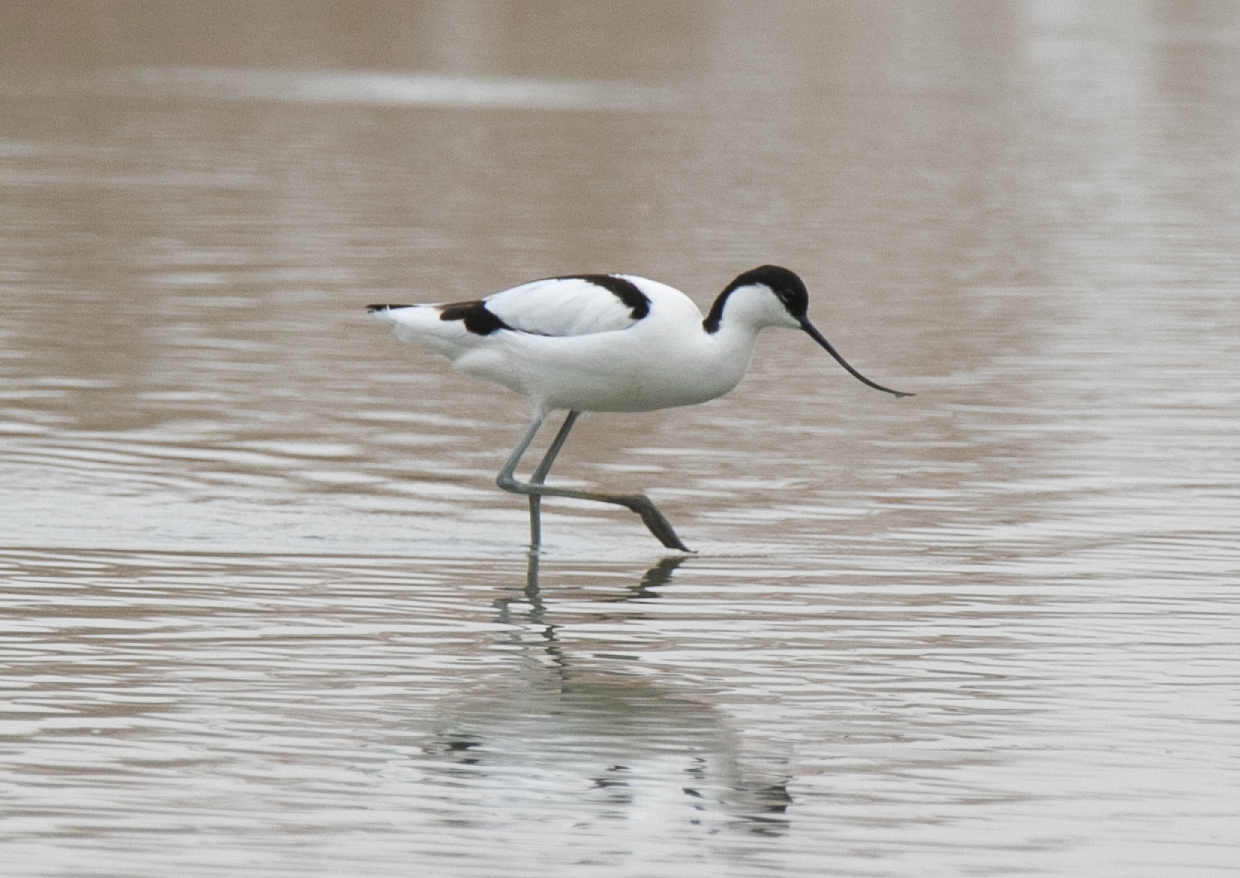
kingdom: Animalia
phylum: Chordata
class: Aves
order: Charadriiformes
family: Recurvirostridae
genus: Recurvirostra
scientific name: Recurvirostra avosetta
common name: Pied avocet
